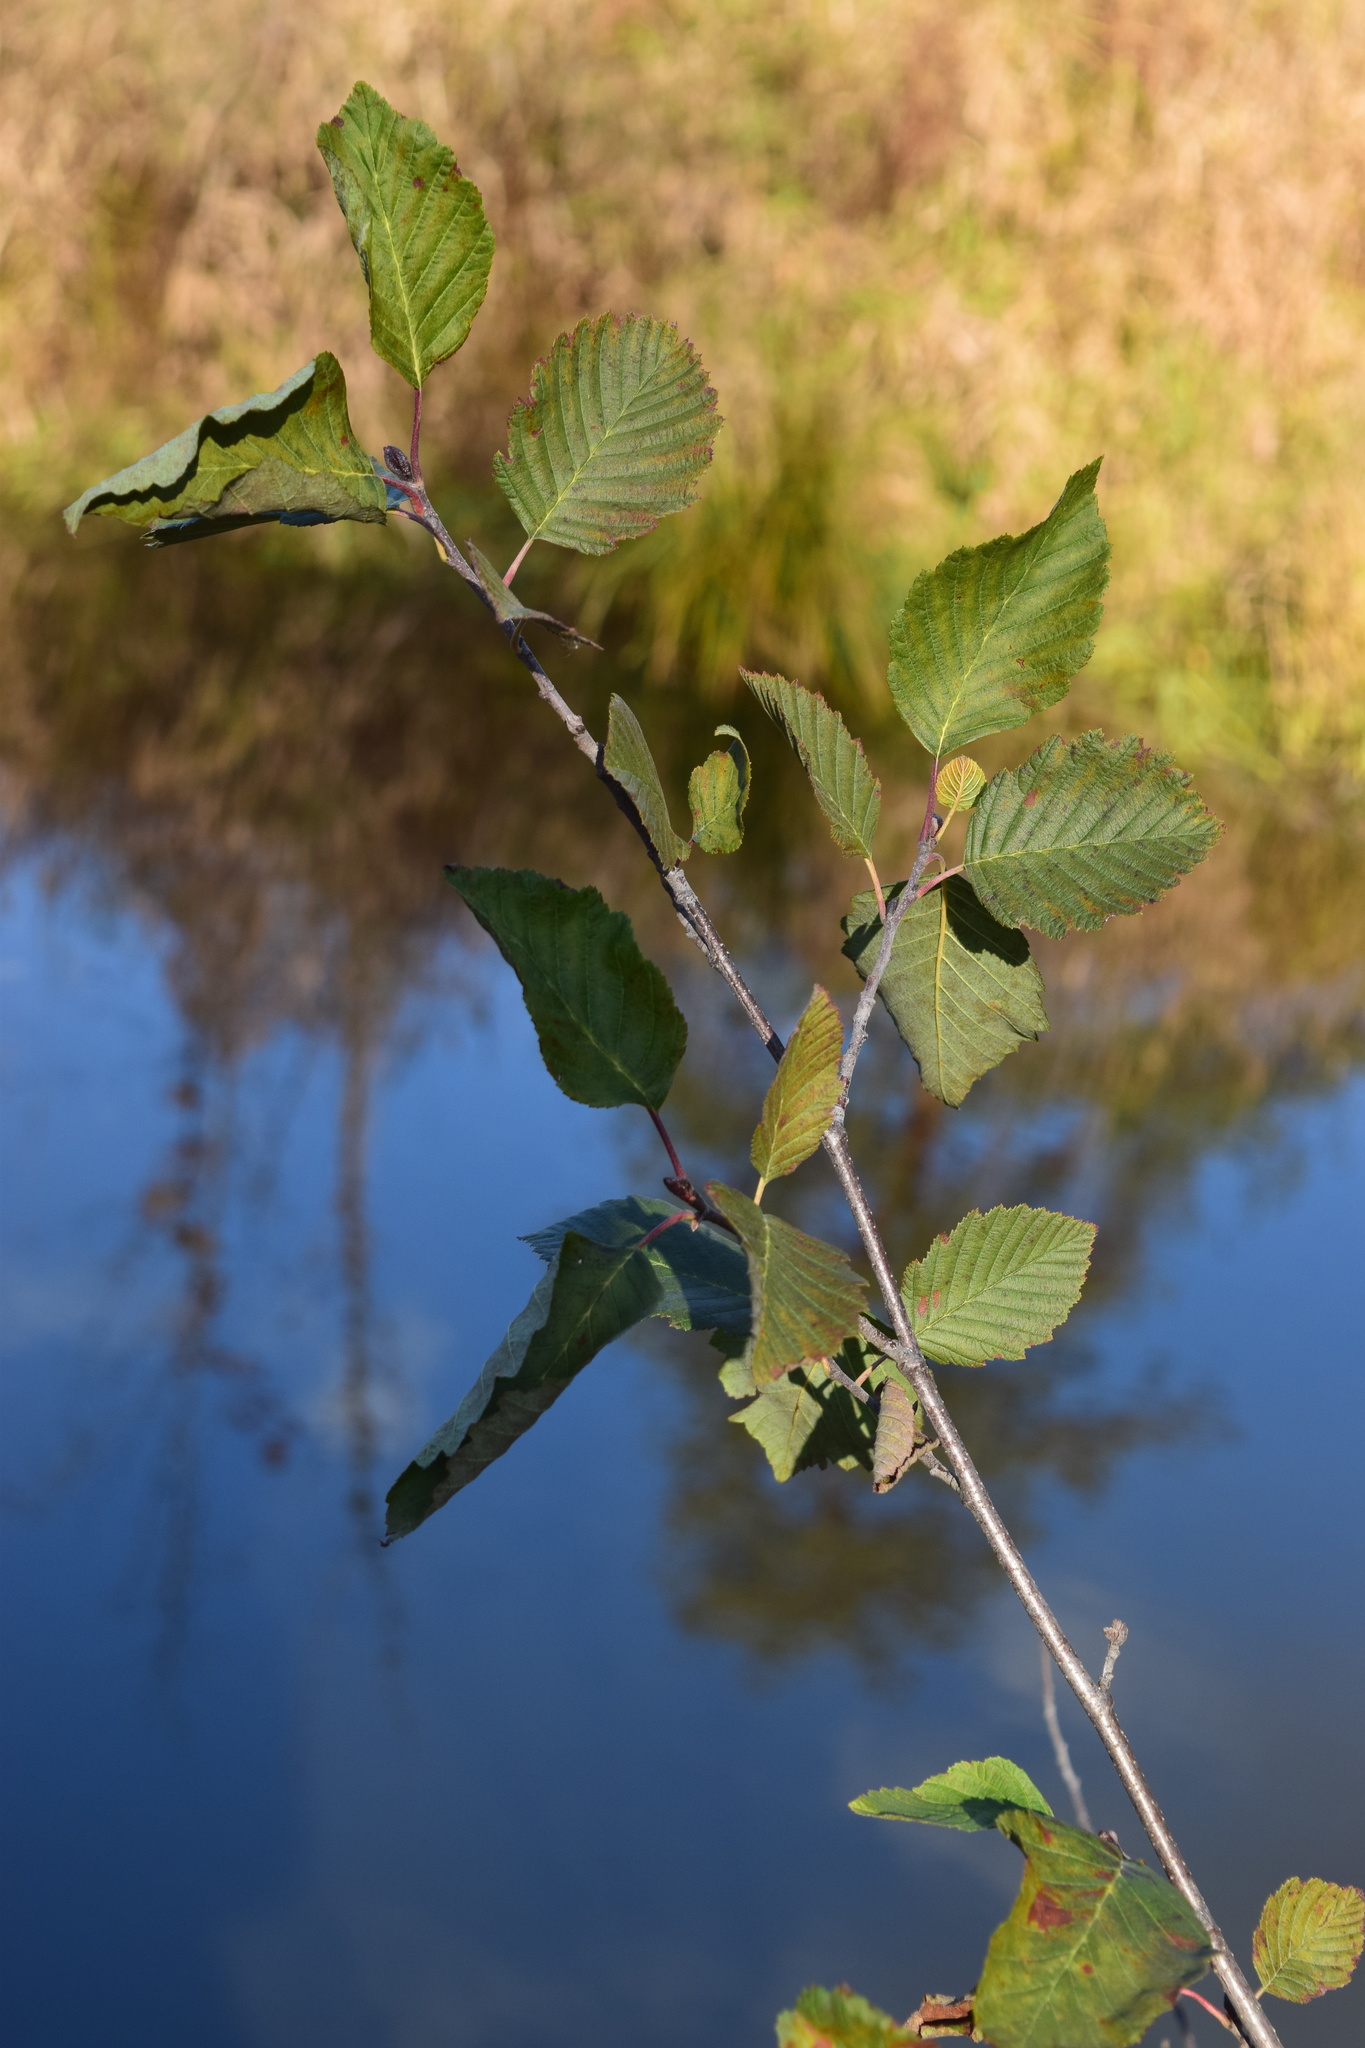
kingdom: Plantae
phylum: Tracheophyta
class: Magnoliopsida
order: Fagales
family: Betulaceae
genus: Alnus
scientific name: Alnus incana
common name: Grey alder
